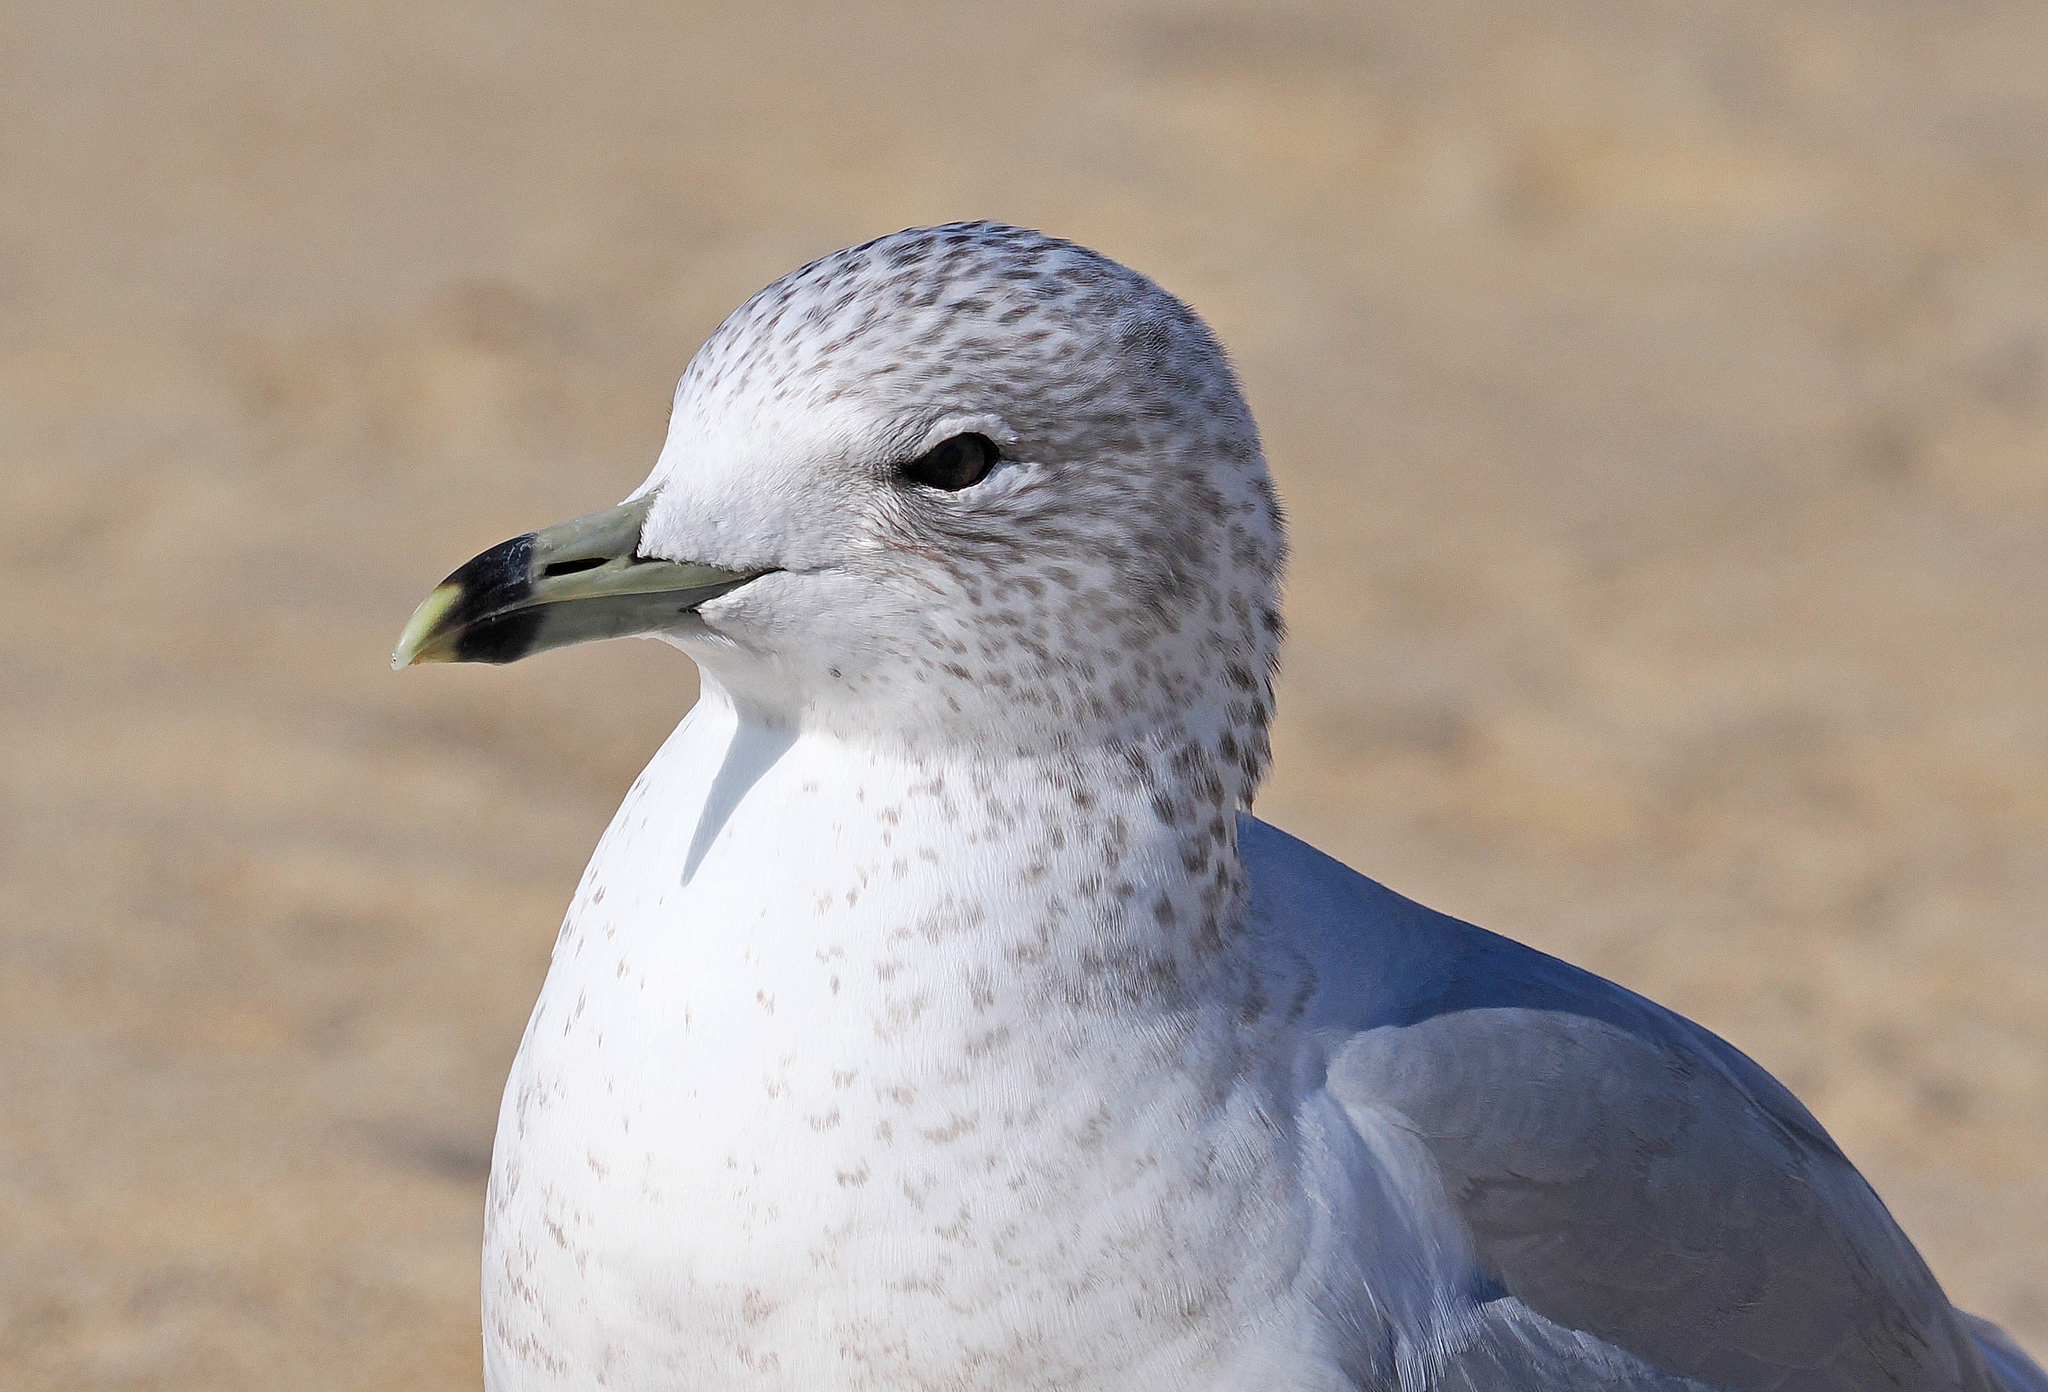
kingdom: Animalia
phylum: Chordata
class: Aves
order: Charadriiformes
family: Laridae
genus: Larus
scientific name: Larus delawarensis
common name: Ring-billed gull
